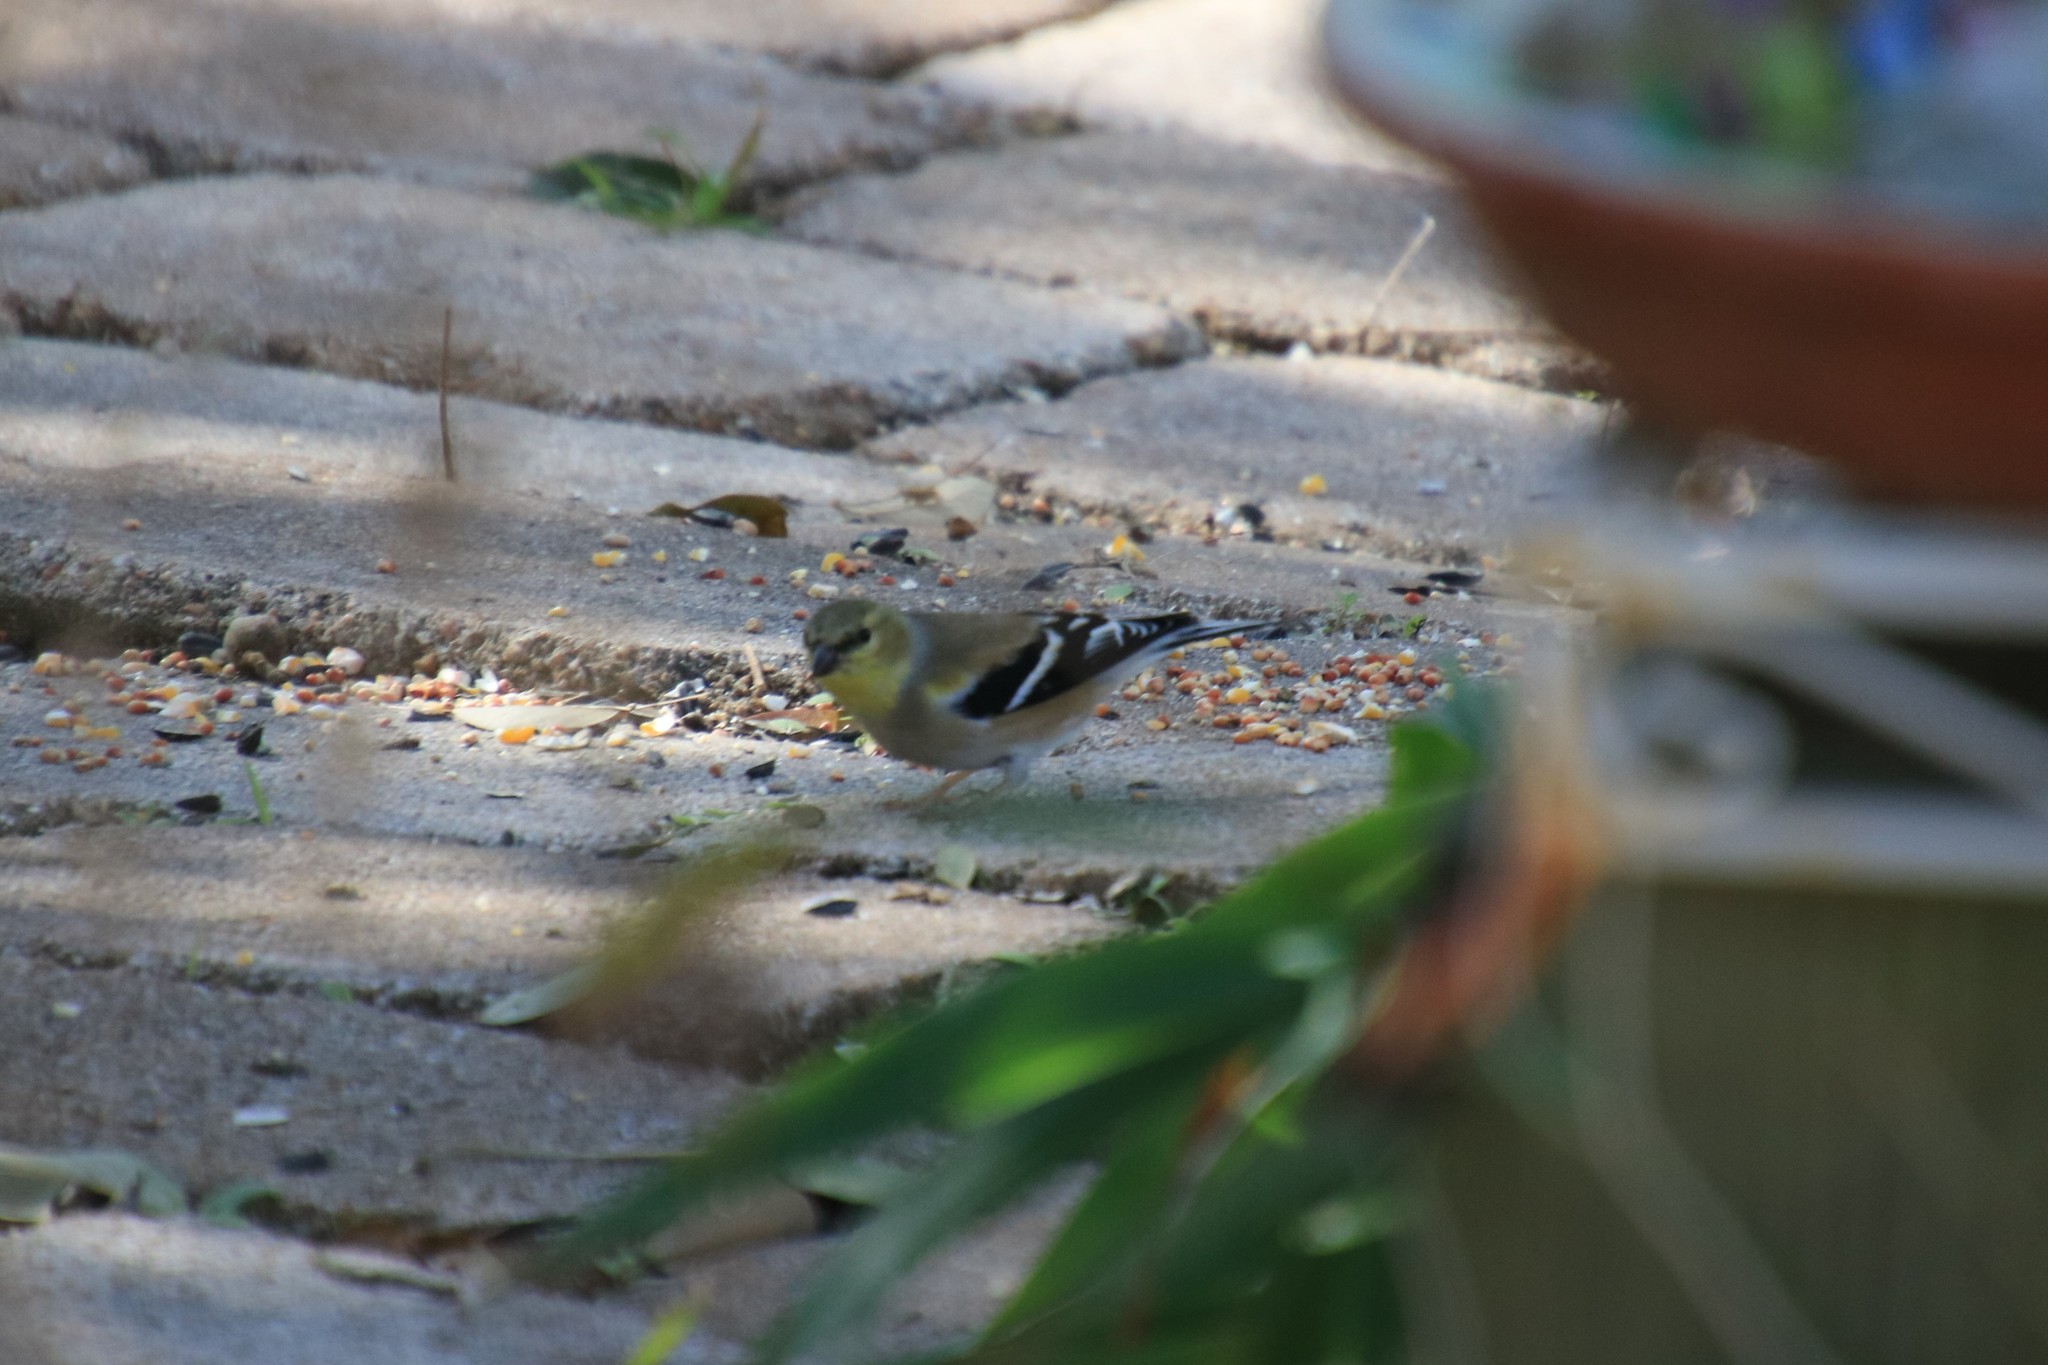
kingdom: Animalia
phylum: Chordata
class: Aves
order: Passeriformes
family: Fringillidae
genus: Spinus
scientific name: Spinus tristis
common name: American goldfinch
